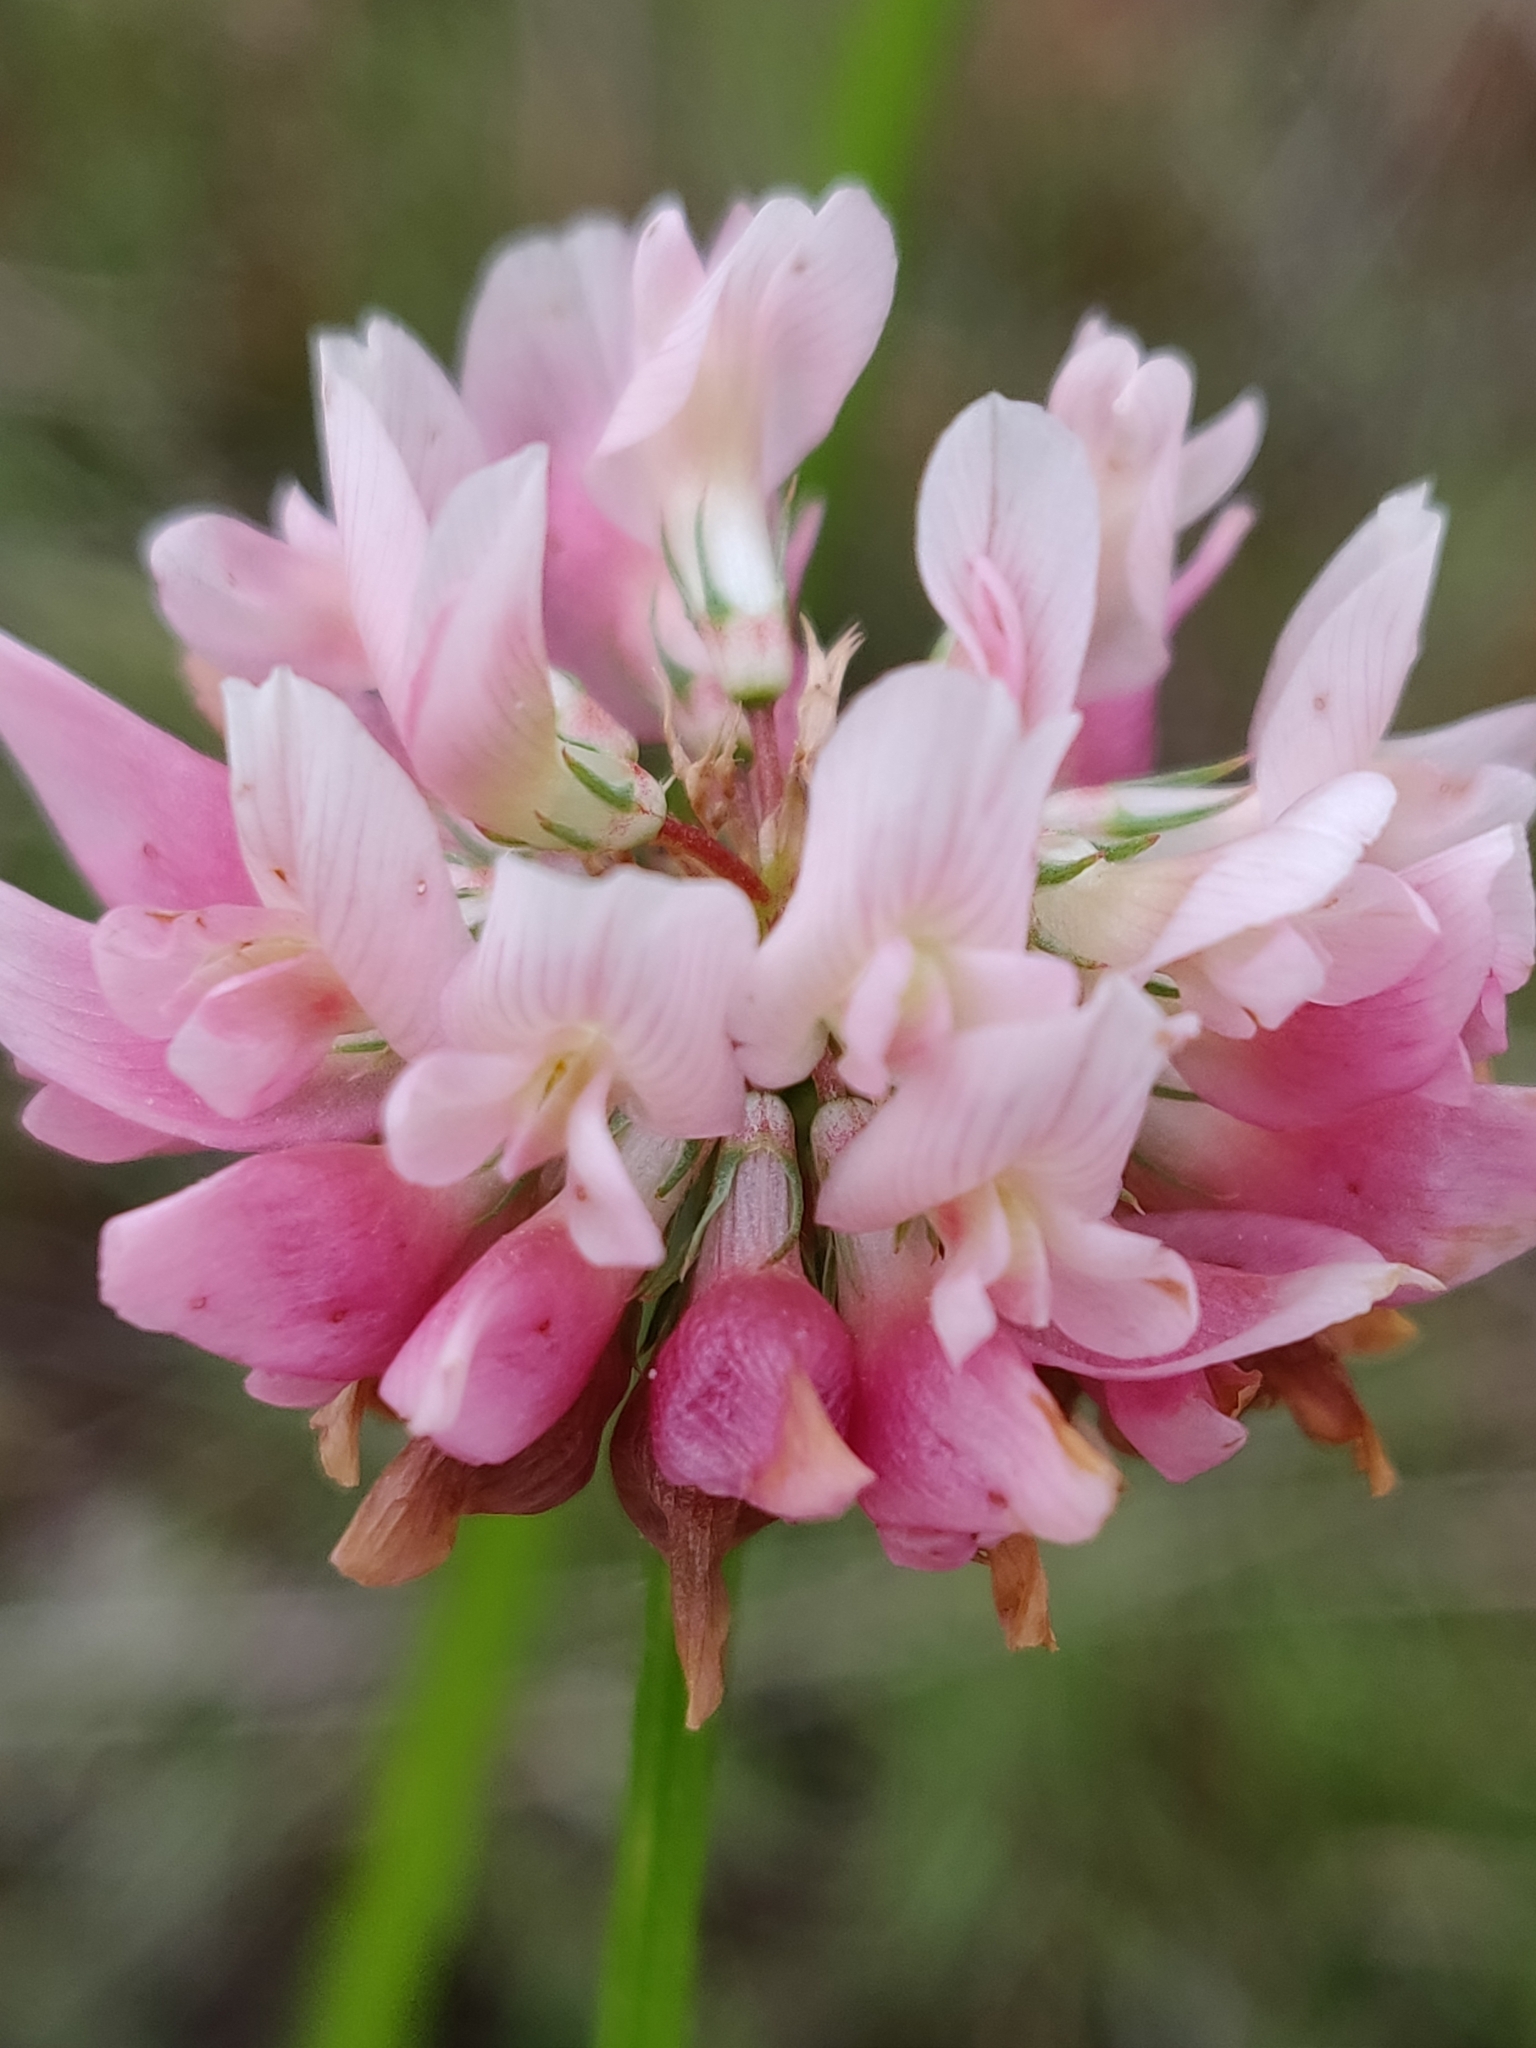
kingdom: Plantae
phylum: Tracheophyta
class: Magnoliopsida
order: Fabales
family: Fabaceae
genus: Trifolium
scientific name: Trifolium hybridum
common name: Alsike clover
